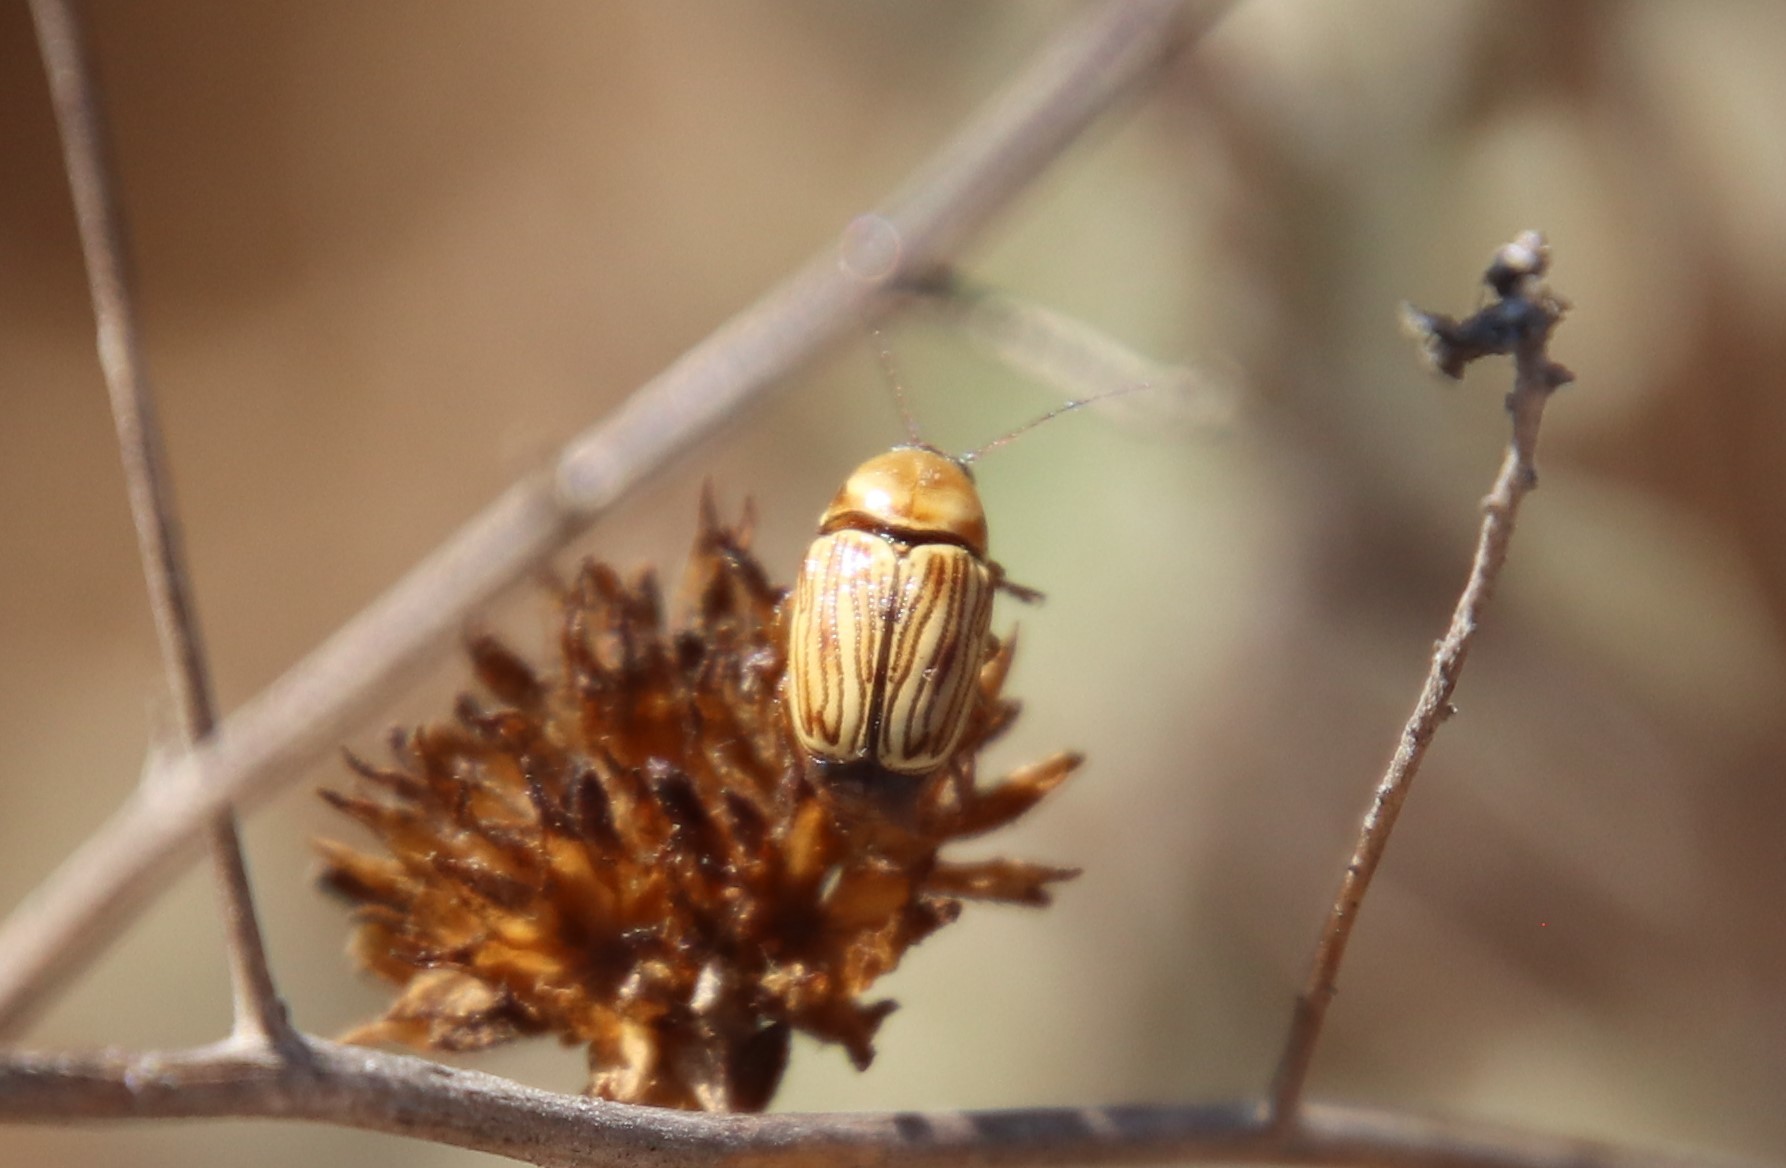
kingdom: Animalia
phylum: Arthropoda
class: Insecta
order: Coleoptera
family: Chrysomelidae
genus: Cryptocephalus
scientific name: Cryptocephalus spurcus
